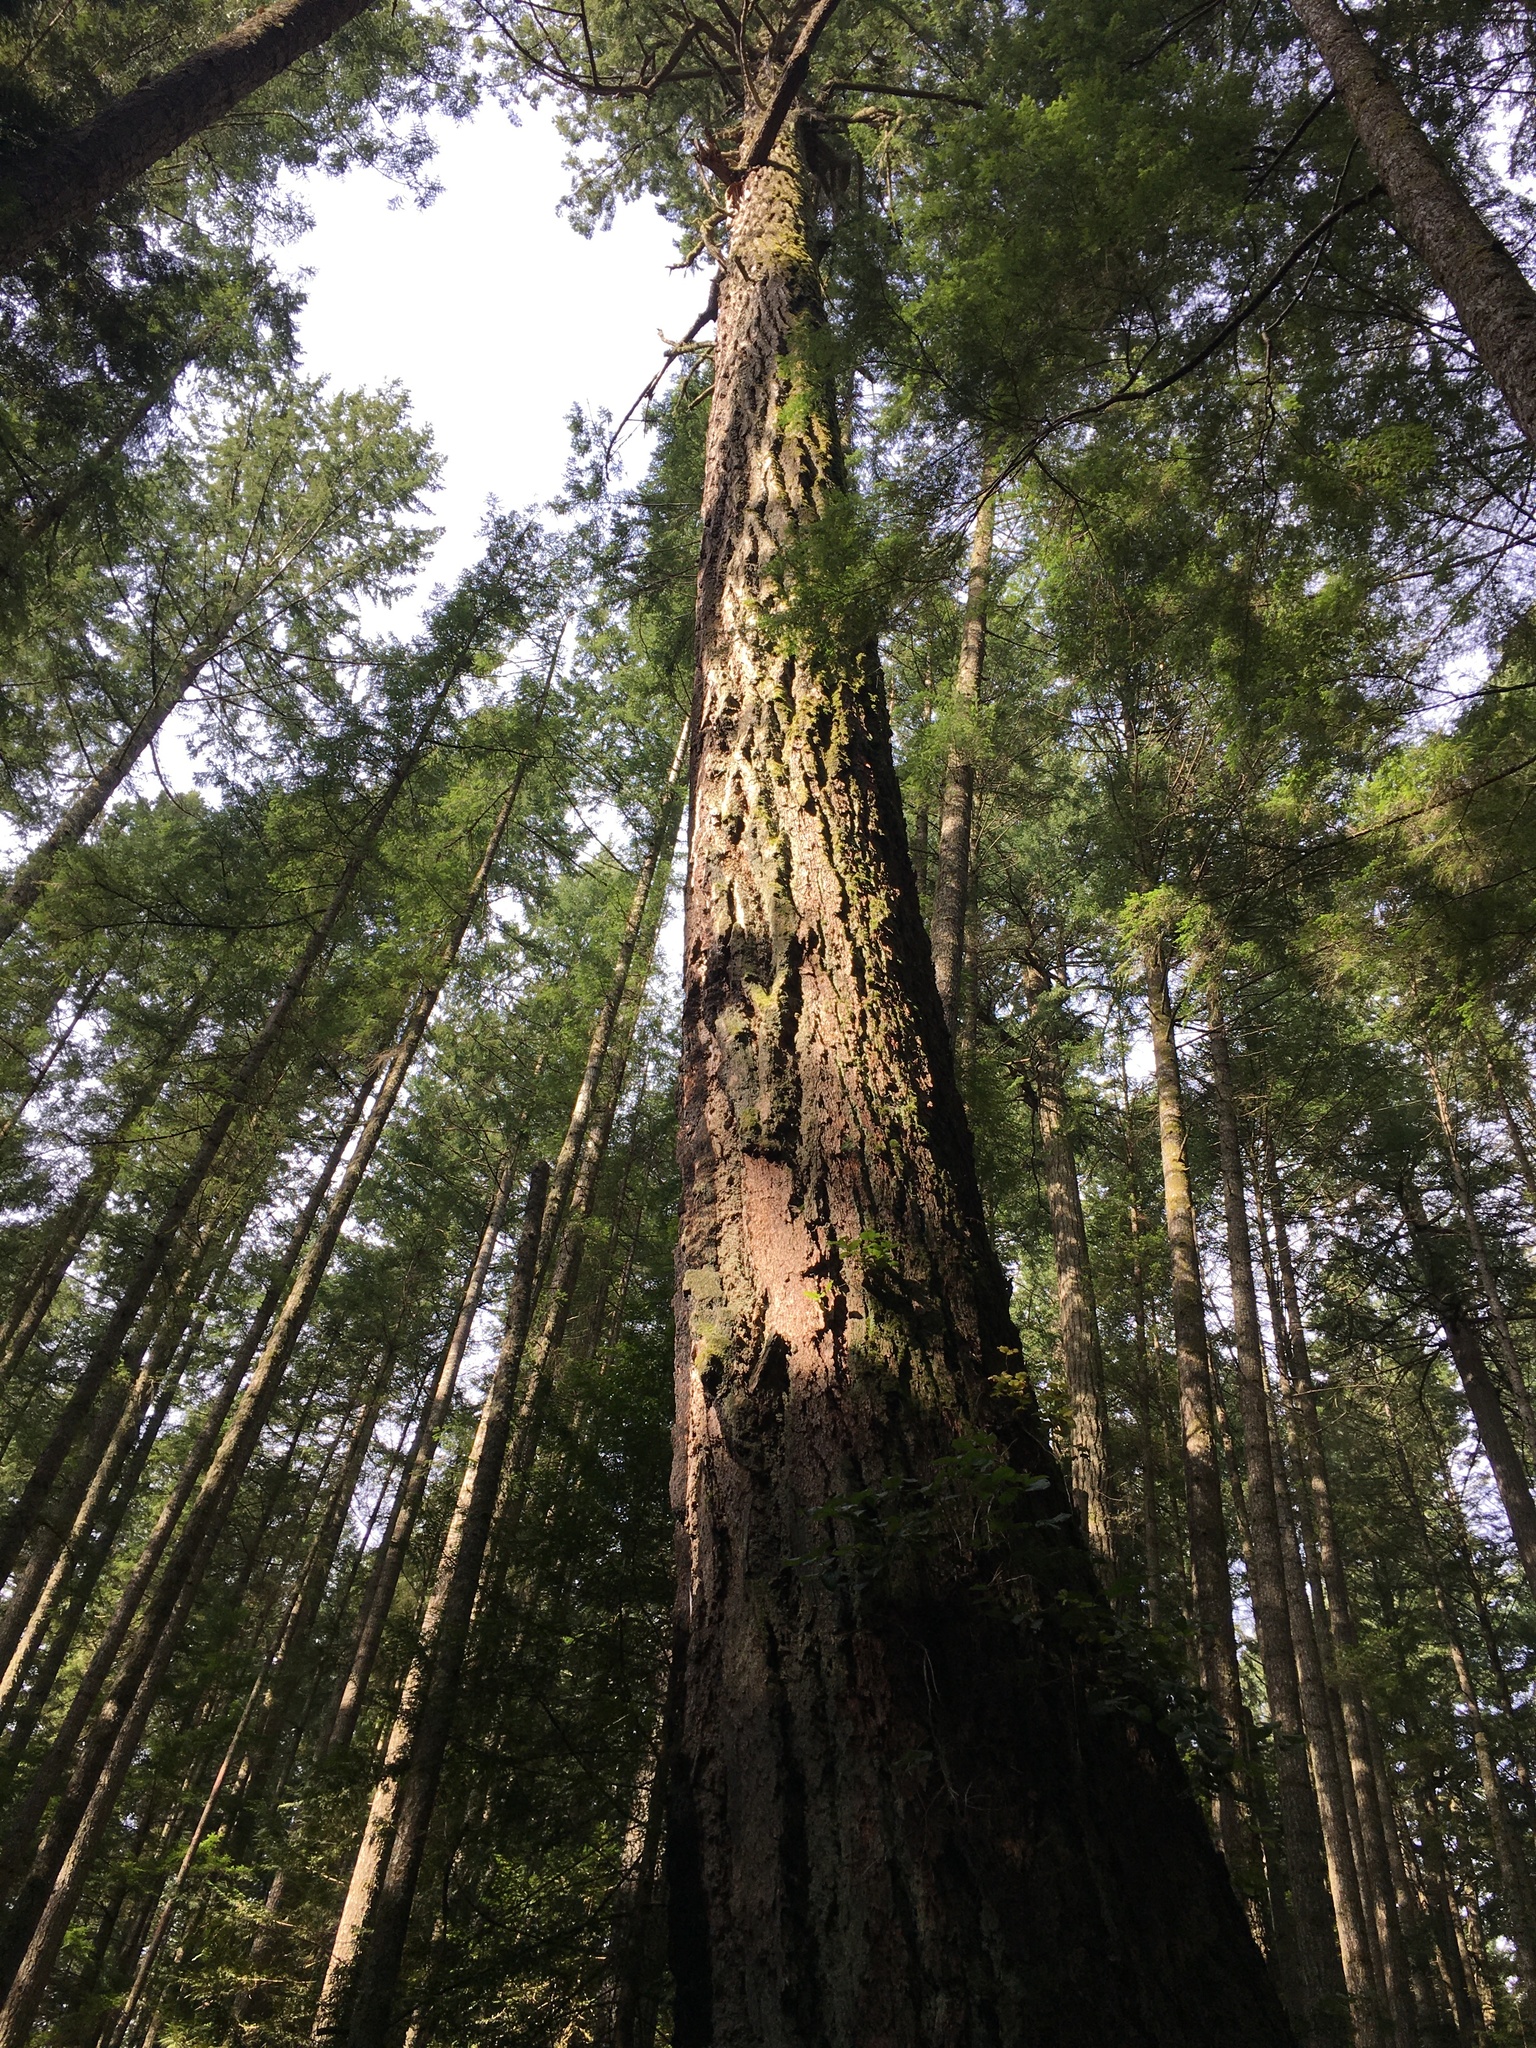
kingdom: Plantae
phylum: Tracheophyta
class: Pinopsida
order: Pinales
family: Pinaceae
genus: Pseudotsuga
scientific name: Pseudotsuga menziesii
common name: Douglas fir
